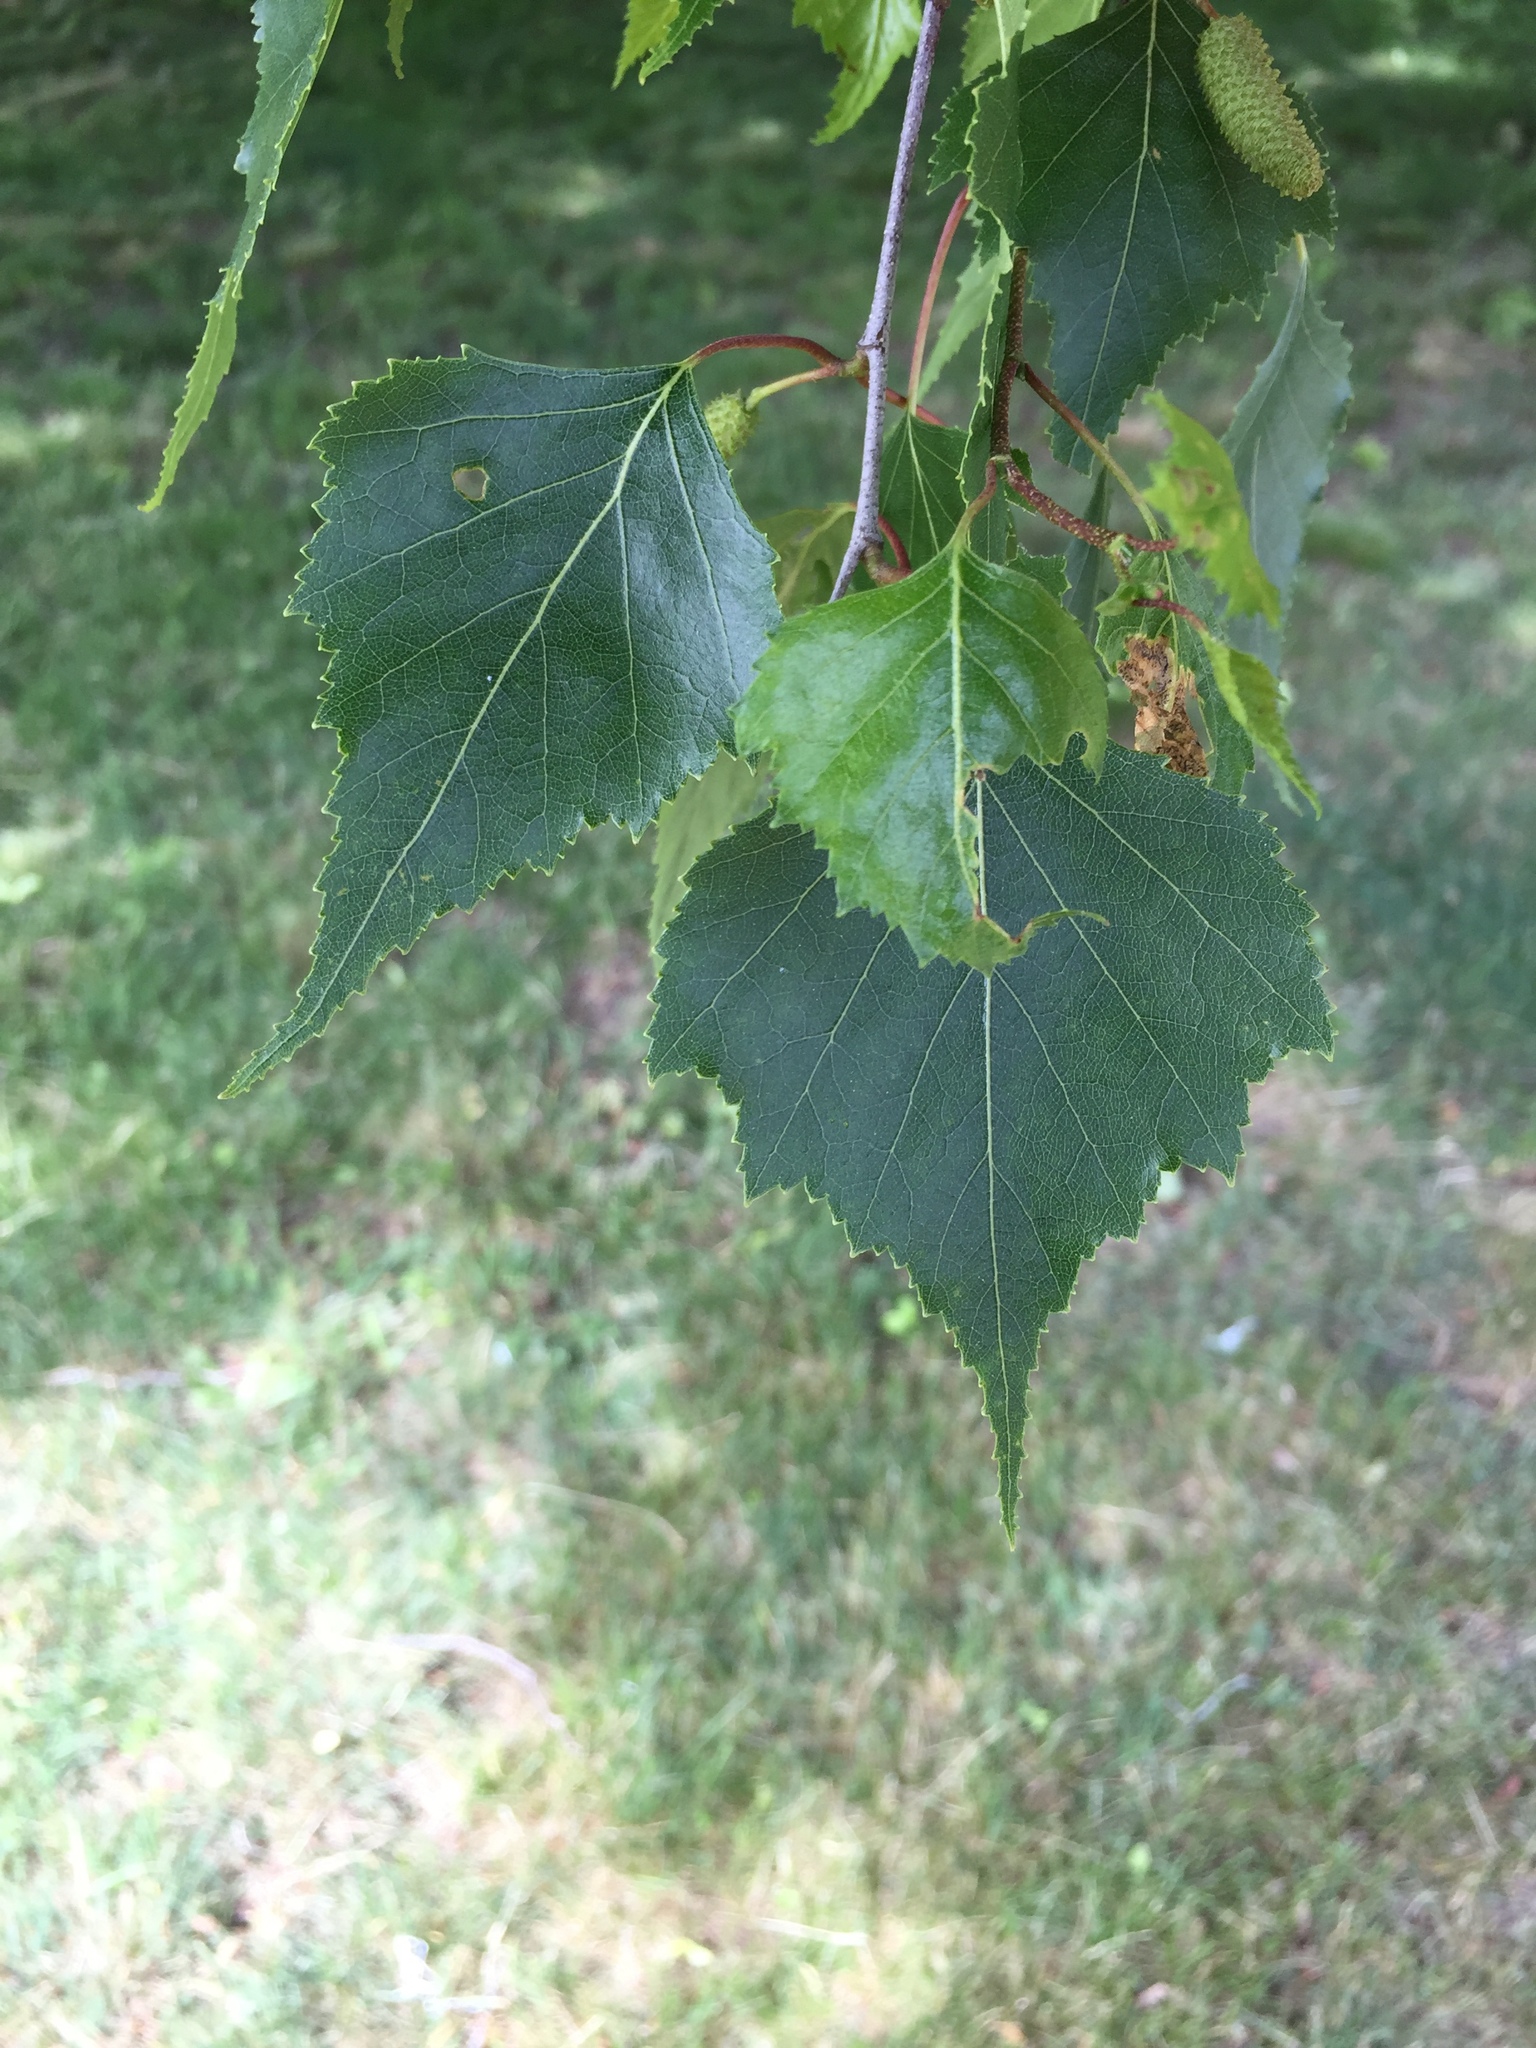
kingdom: Plantae
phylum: Tracheophyta
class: Magnoliopsida
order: Fagales
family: Betulaceae
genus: Betula
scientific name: Betula populifolia
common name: Fire birch
